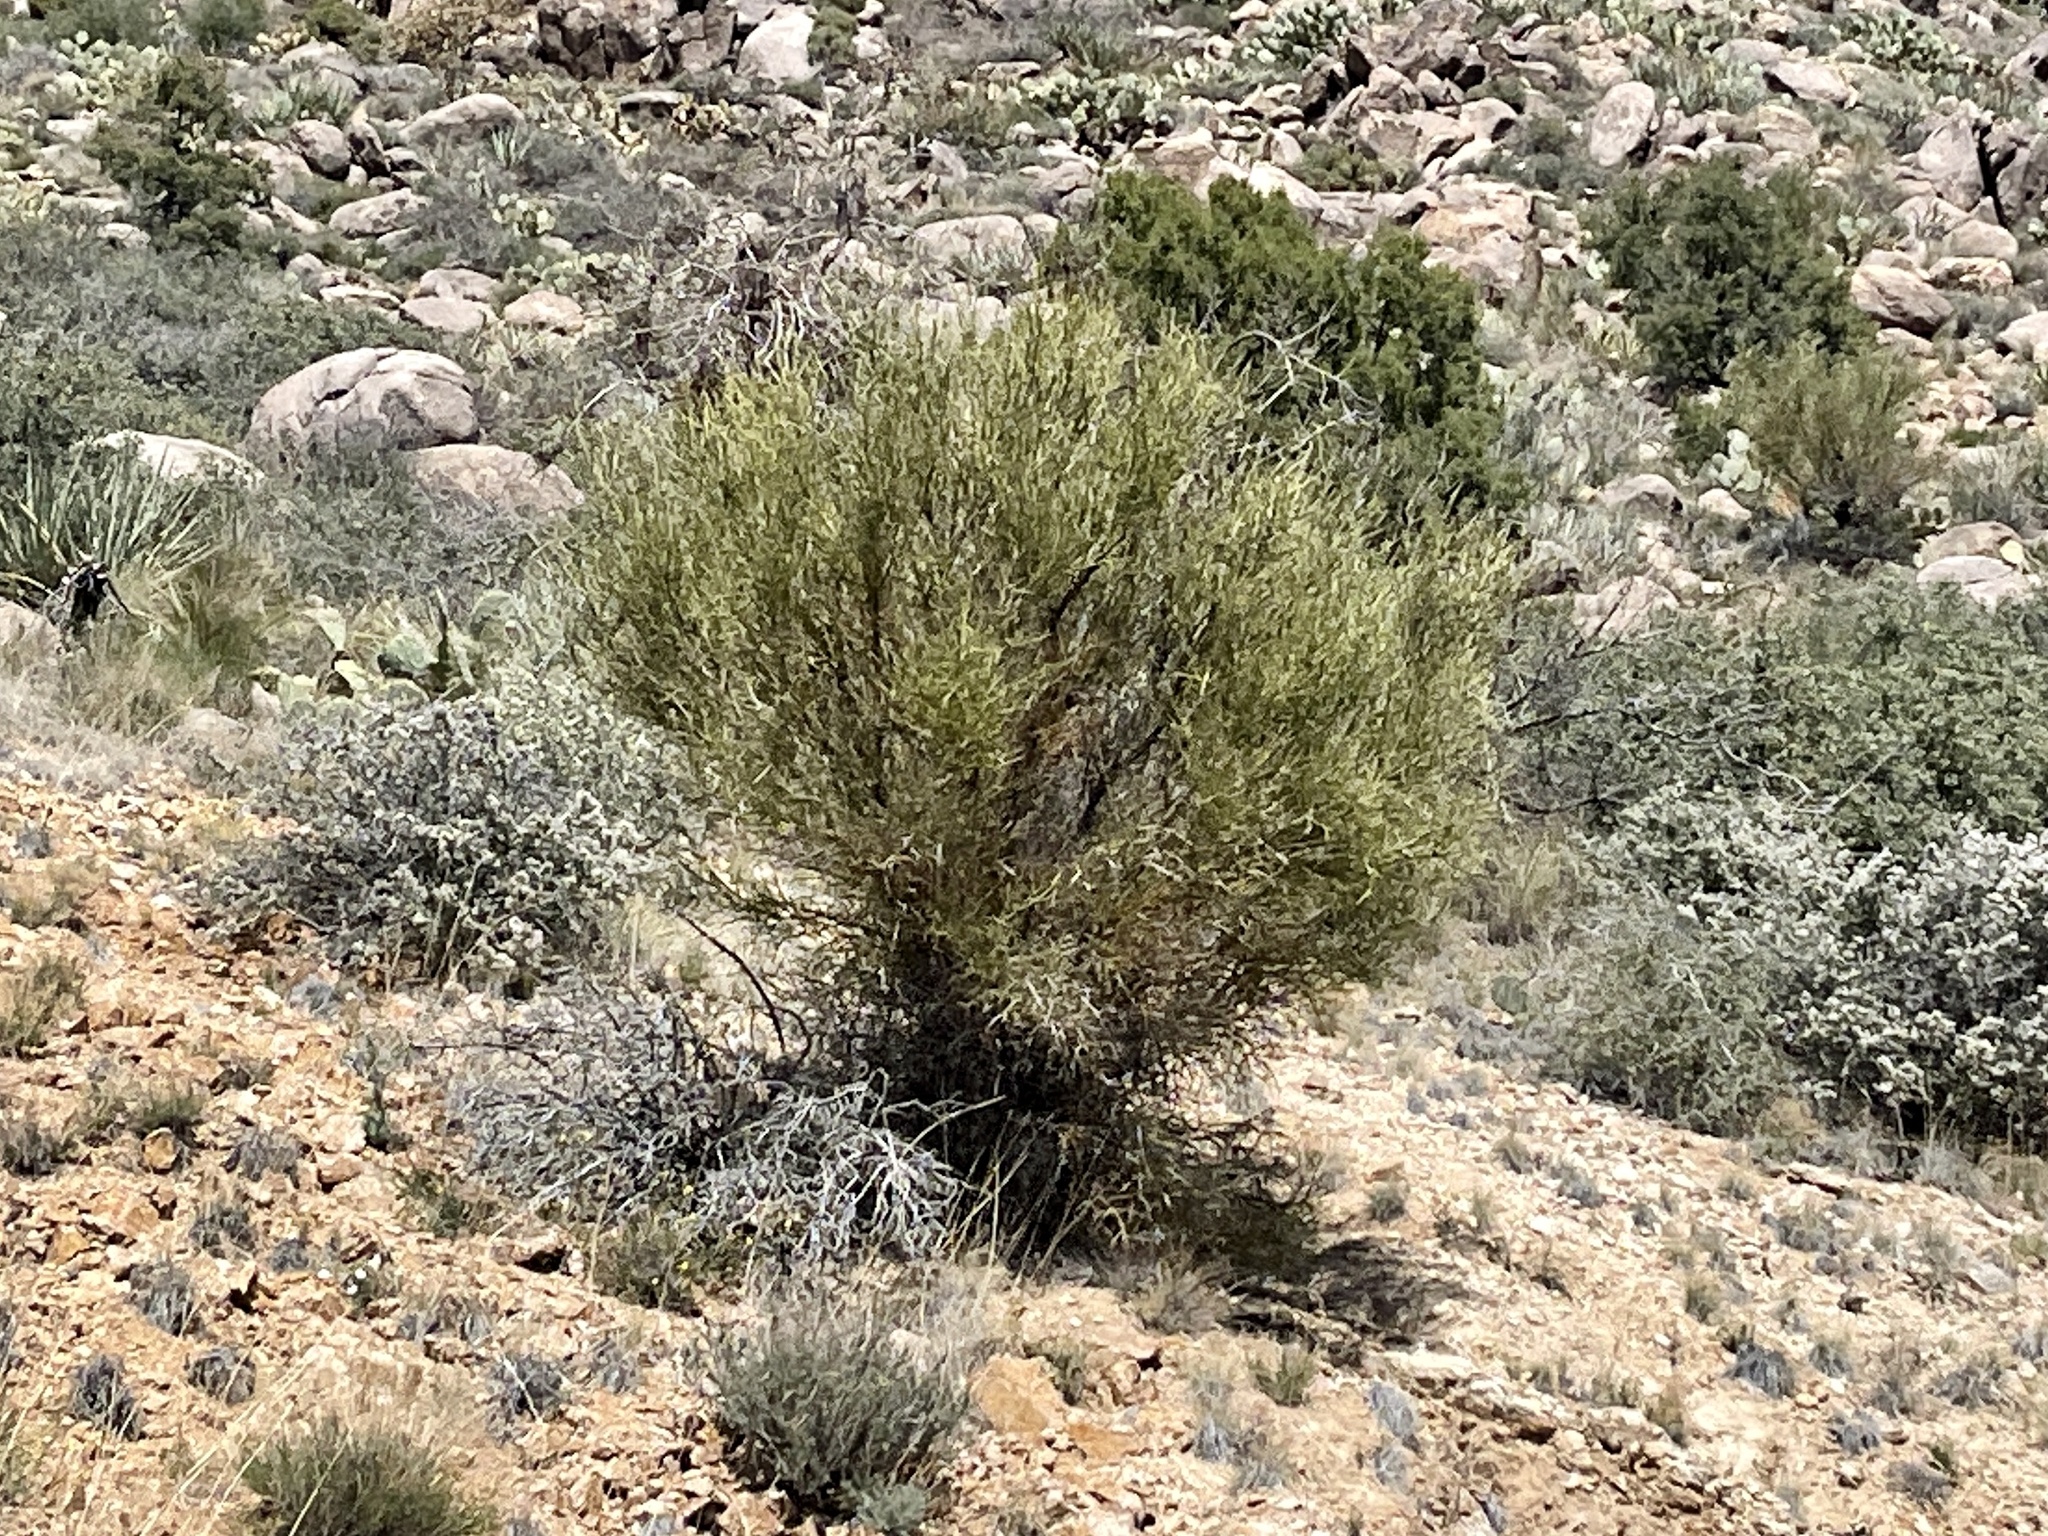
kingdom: Plantae
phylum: Tracheophyta
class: Magnoliopsida
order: Celastrales
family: Celastraceae
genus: Canotia
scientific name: Canotia holacantha
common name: Crucifixion thorns
